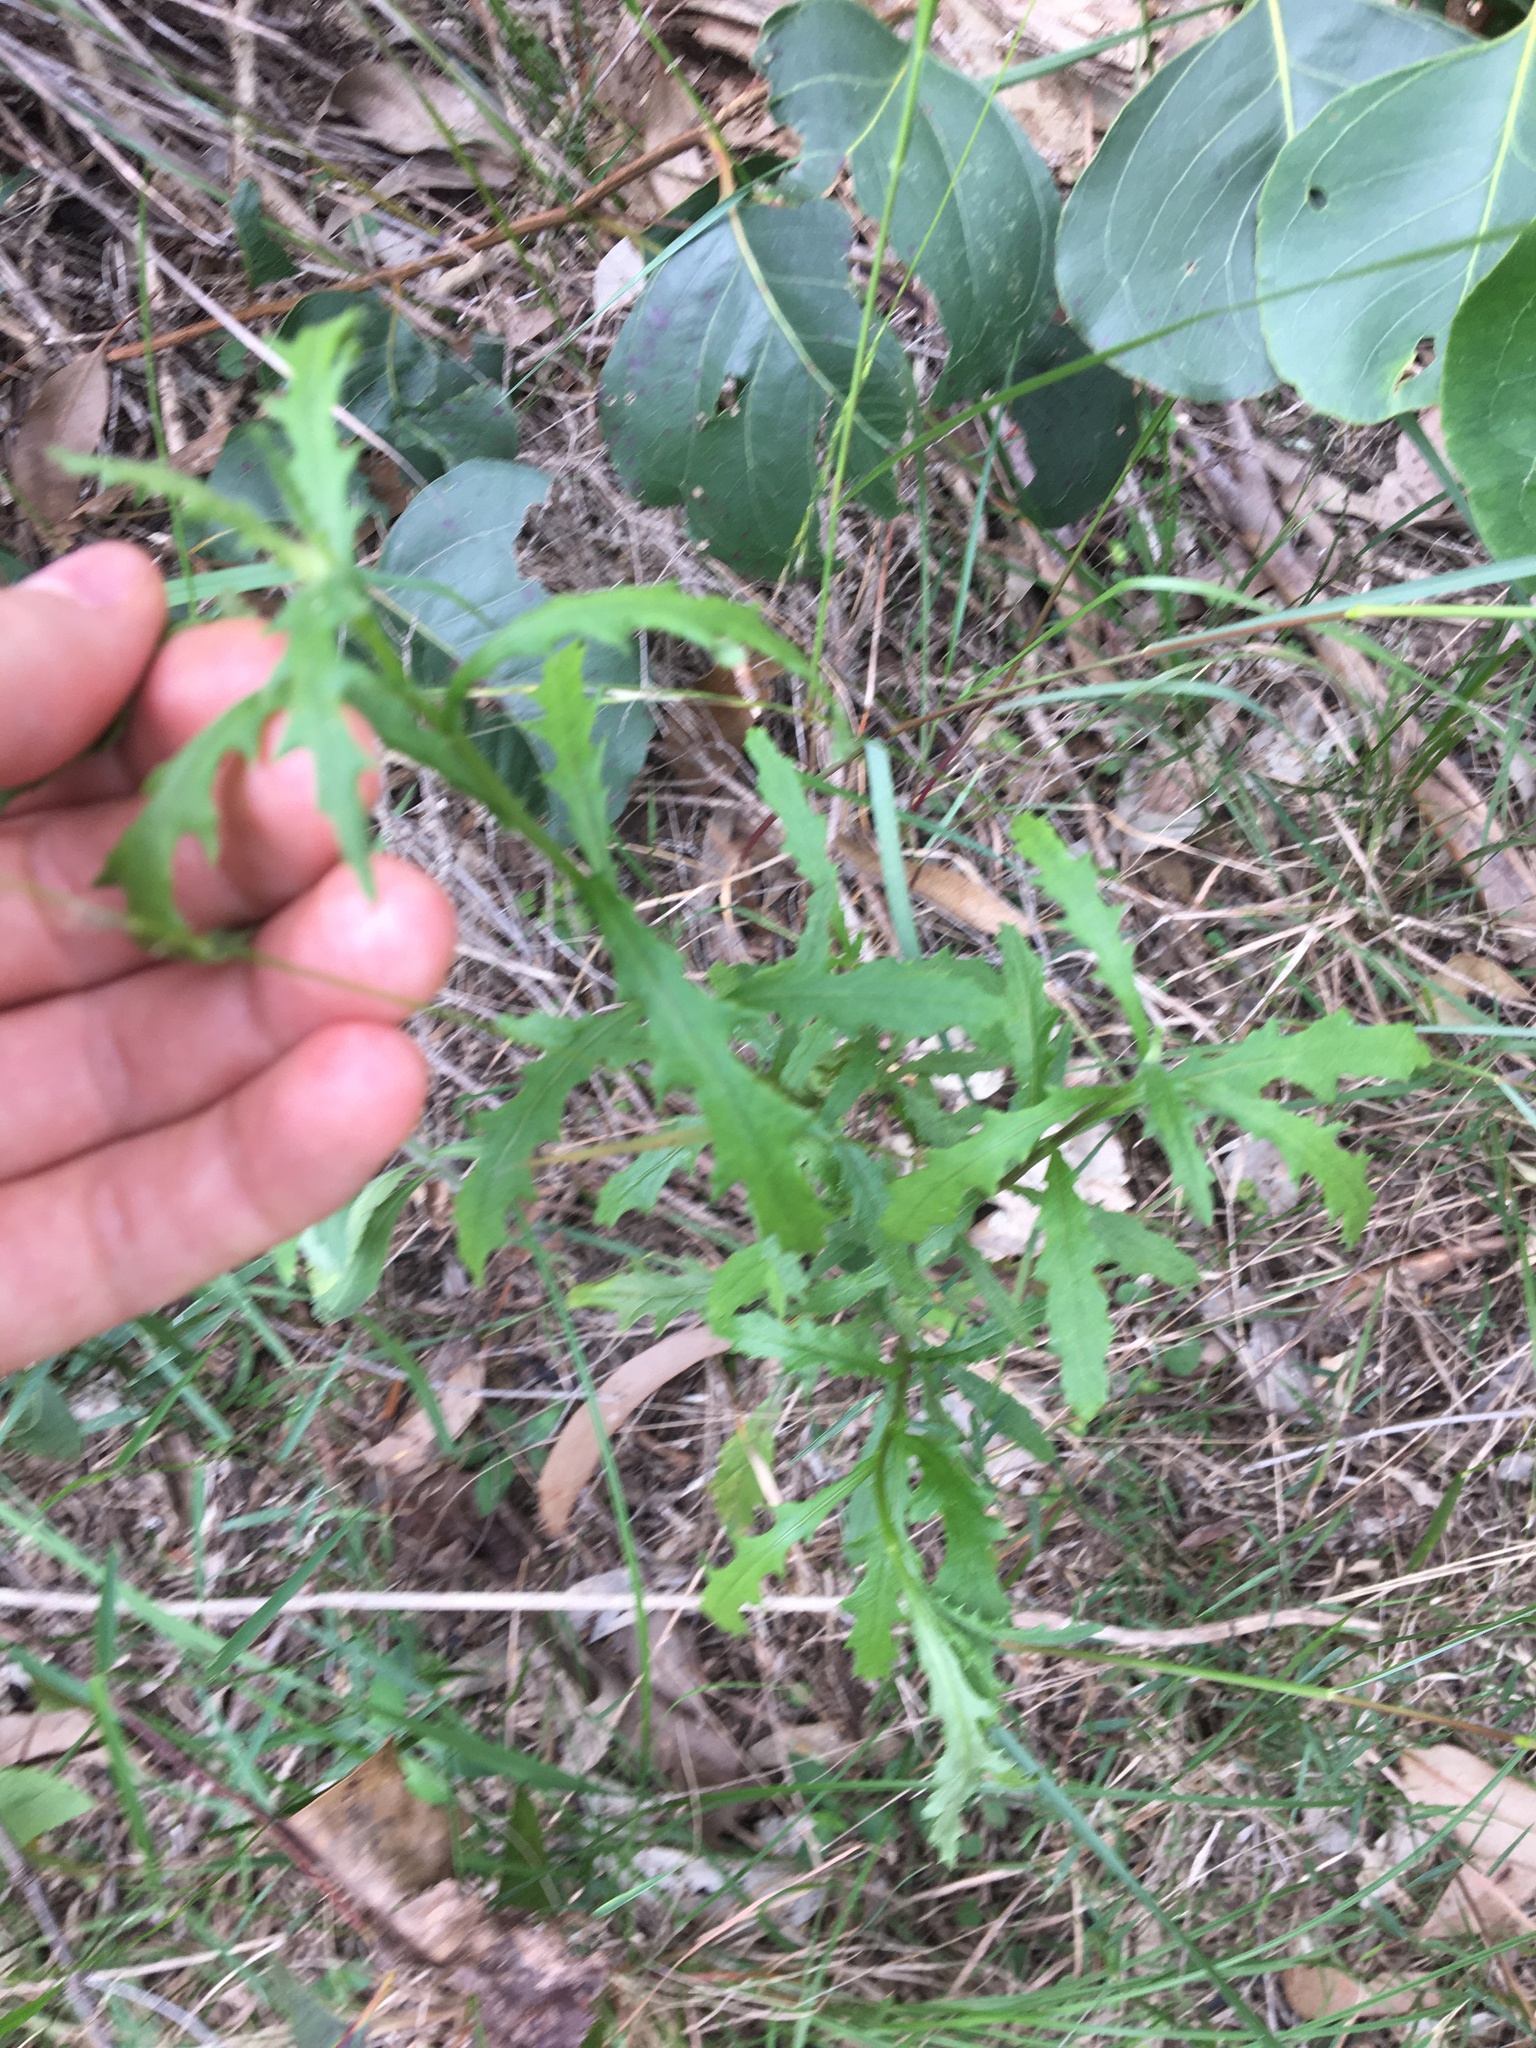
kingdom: Plantae
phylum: Tracheophyta
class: Magnoliopsida
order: Asterales
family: Asteraceae
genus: Senecio
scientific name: Senecio hispidulus
